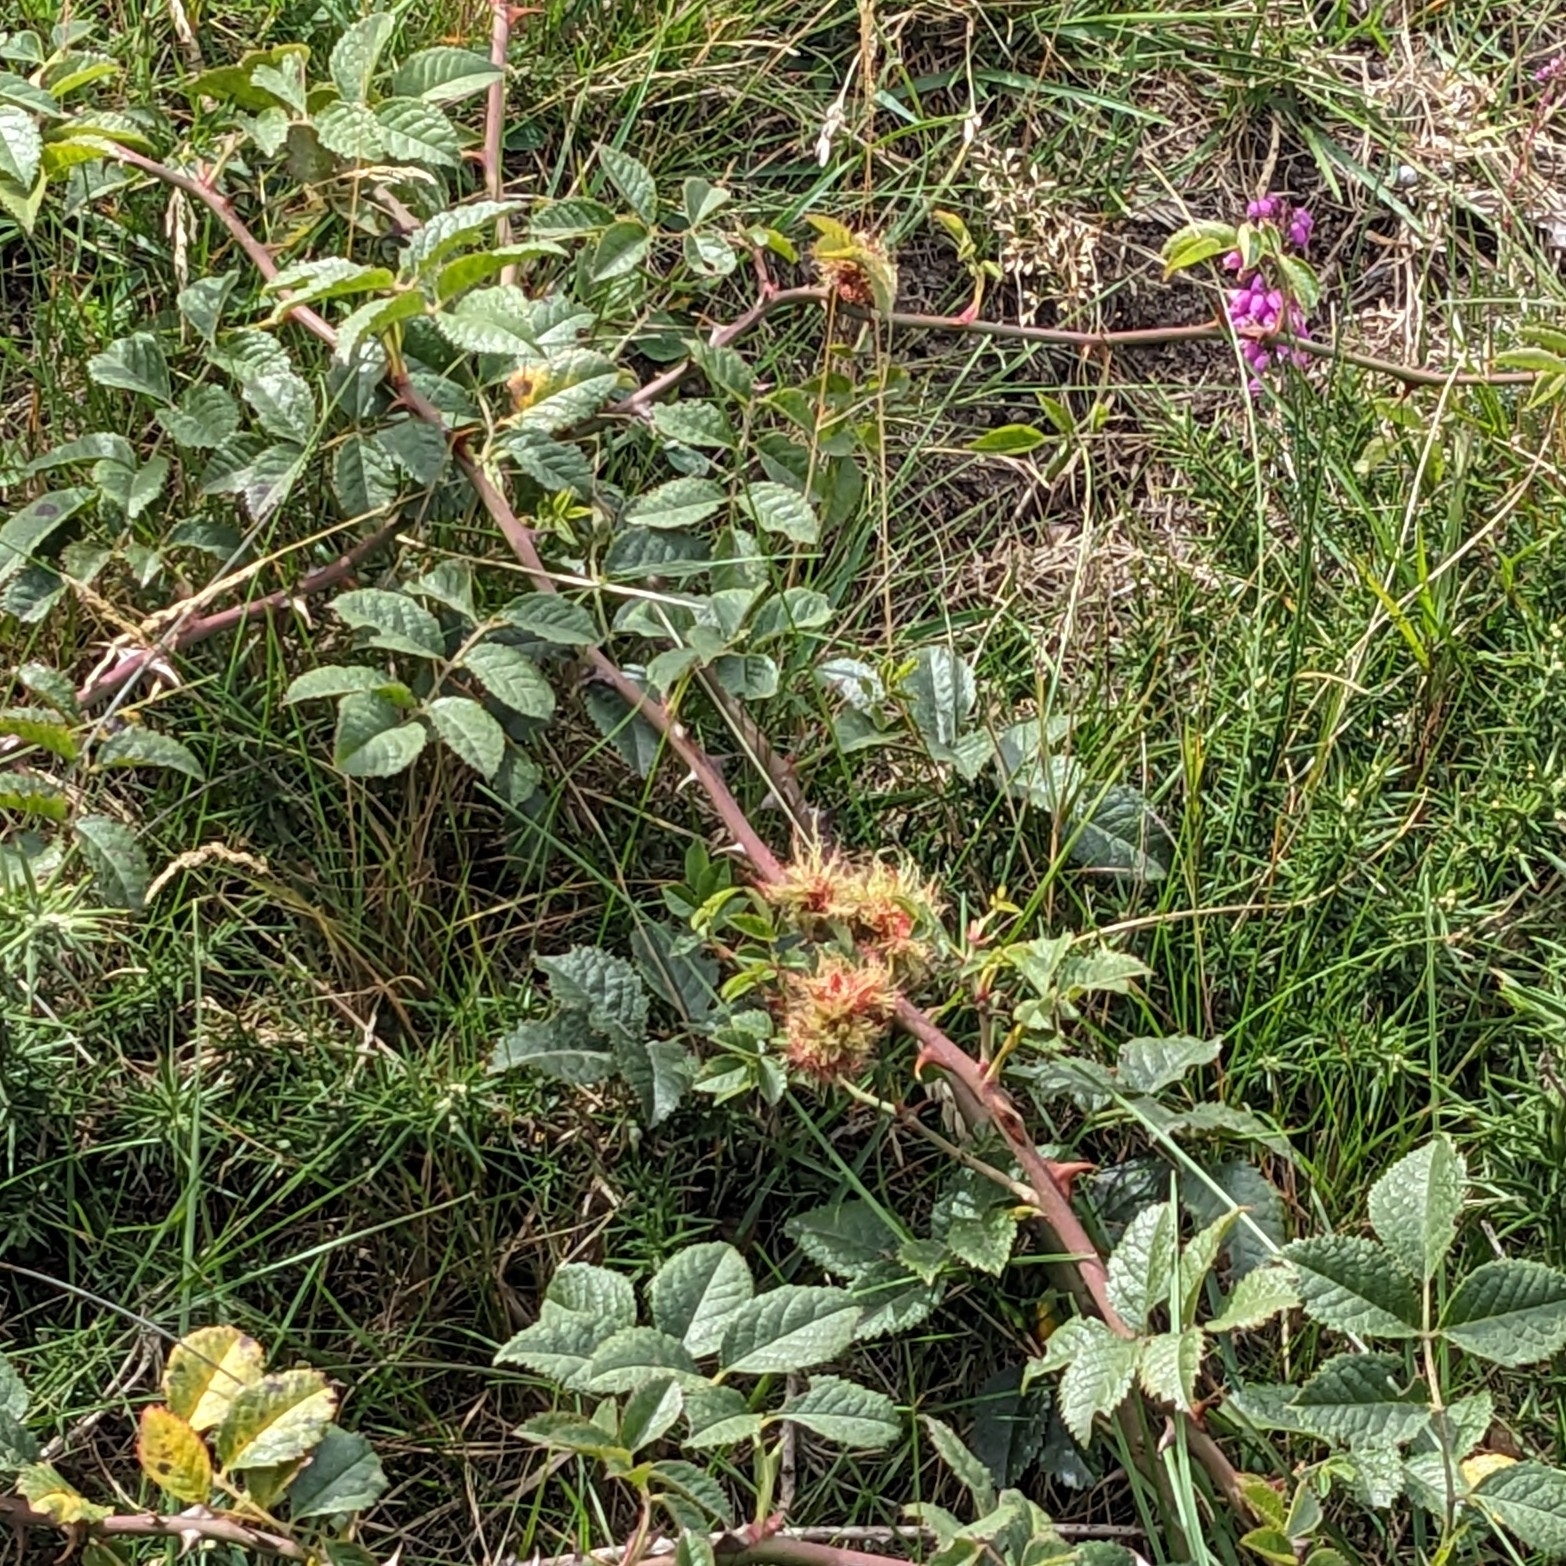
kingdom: Animalia
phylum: Arthropoda
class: Insecta
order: Hymenoptera
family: Cynipidae
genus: Diplolepis
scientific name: Diplolepis rosae
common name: Bedeguar gall
